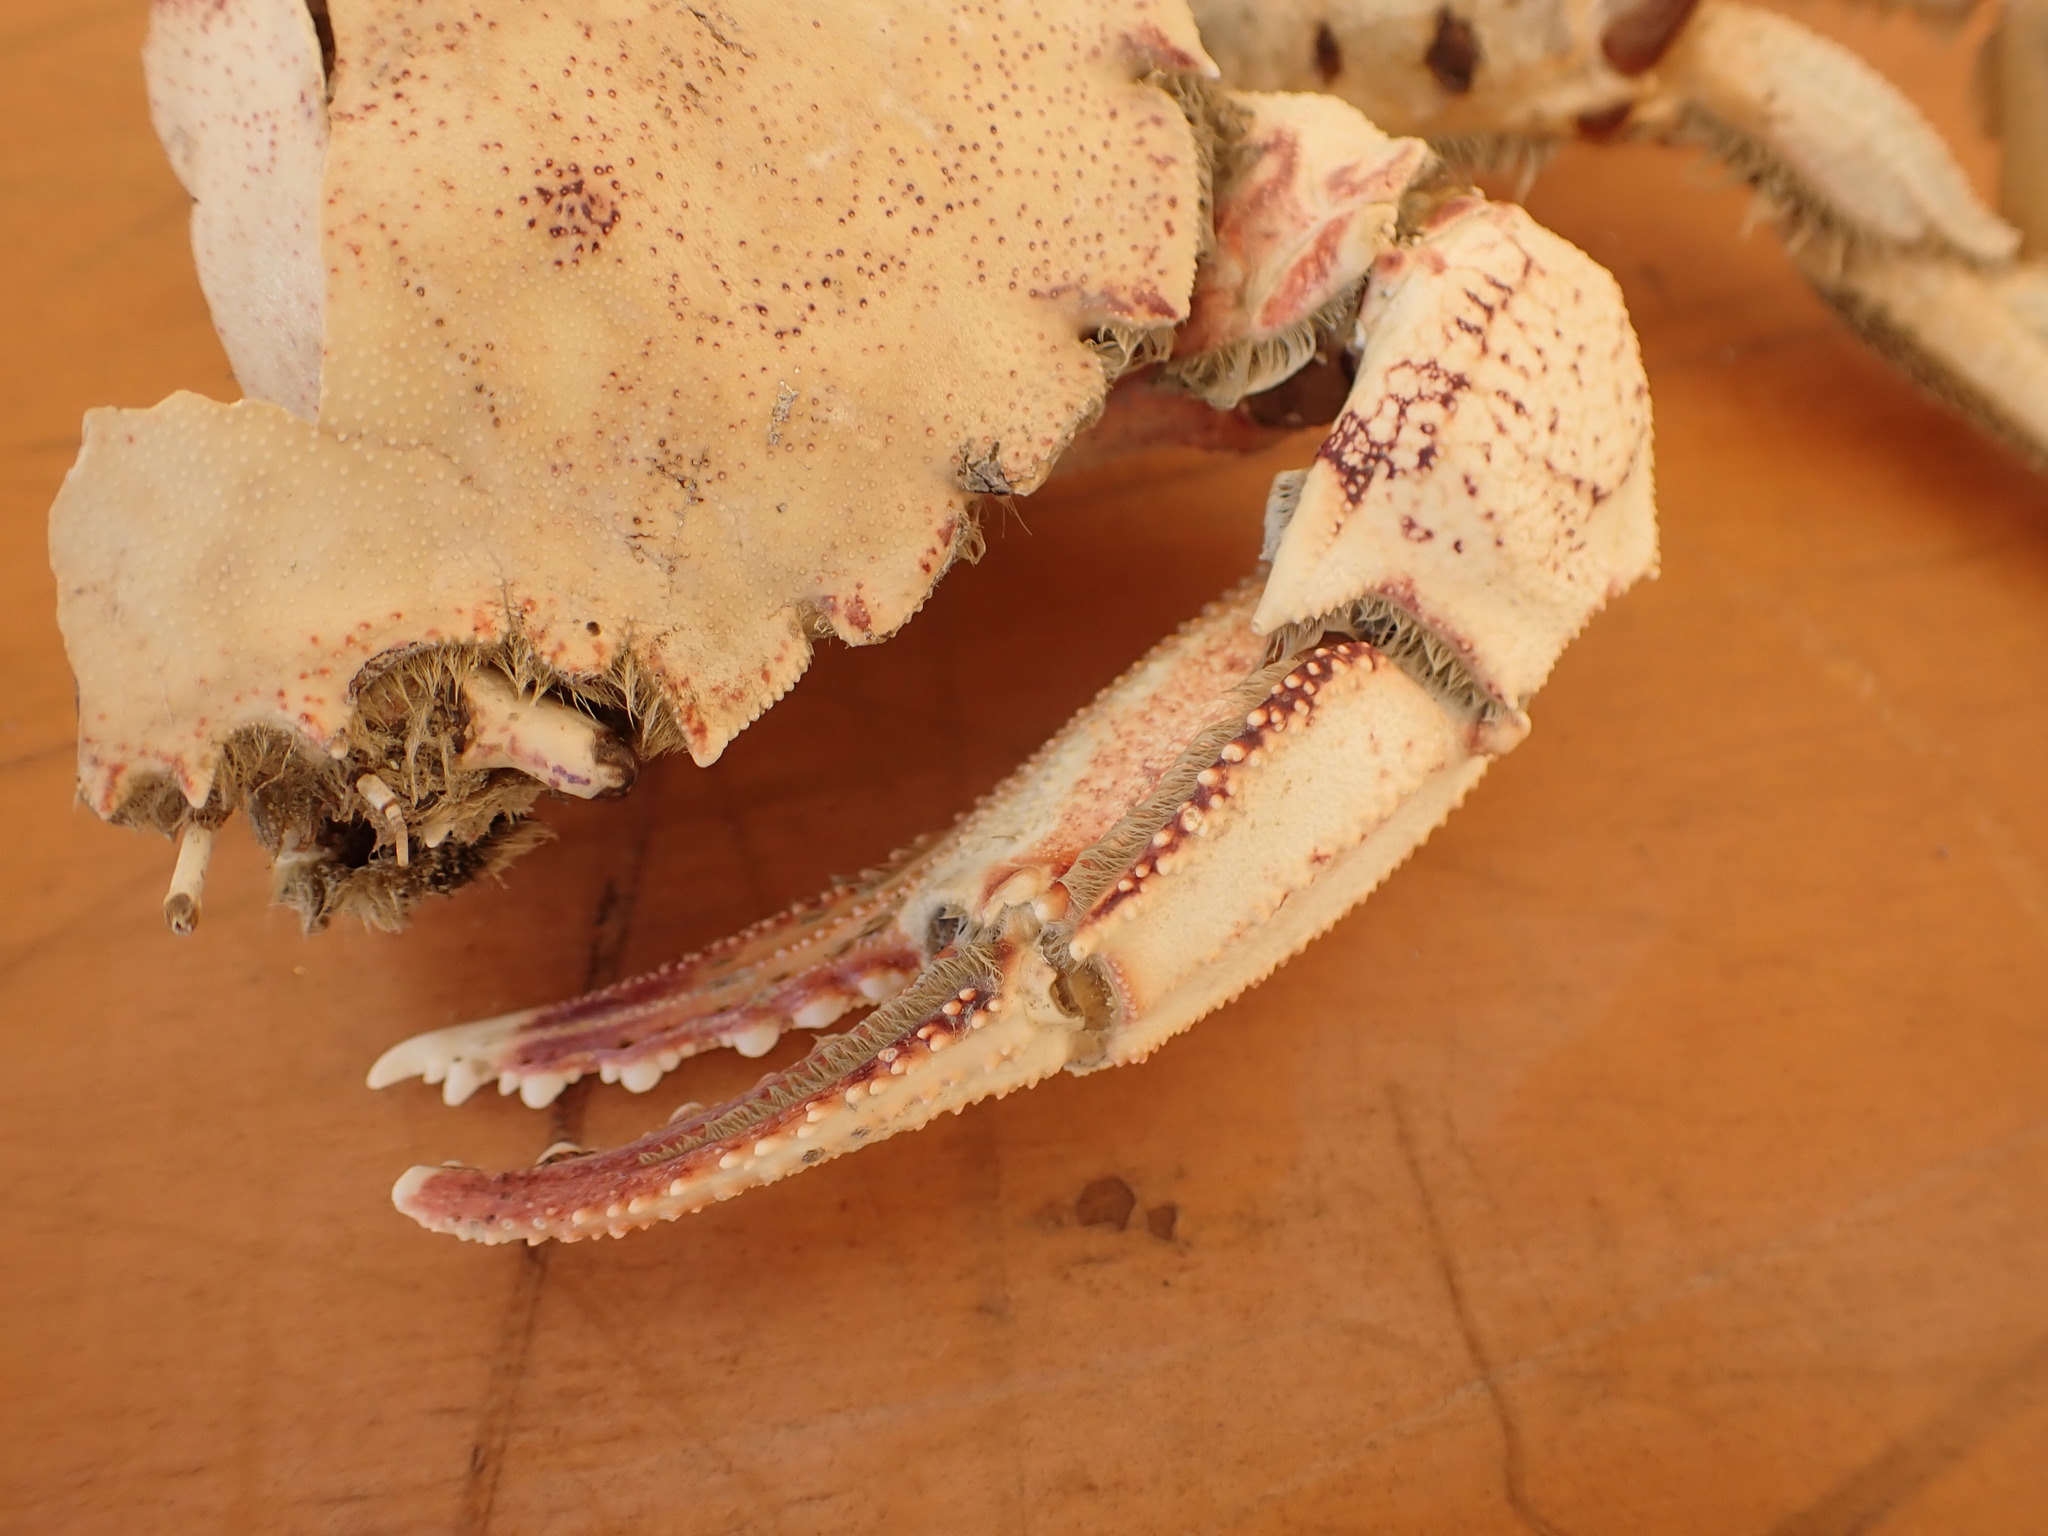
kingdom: Animalia
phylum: Arthropoda
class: Malacostraca
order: Decapoda
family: Ovalipidae
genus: Ovalipes
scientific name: Ovalipes catharus
